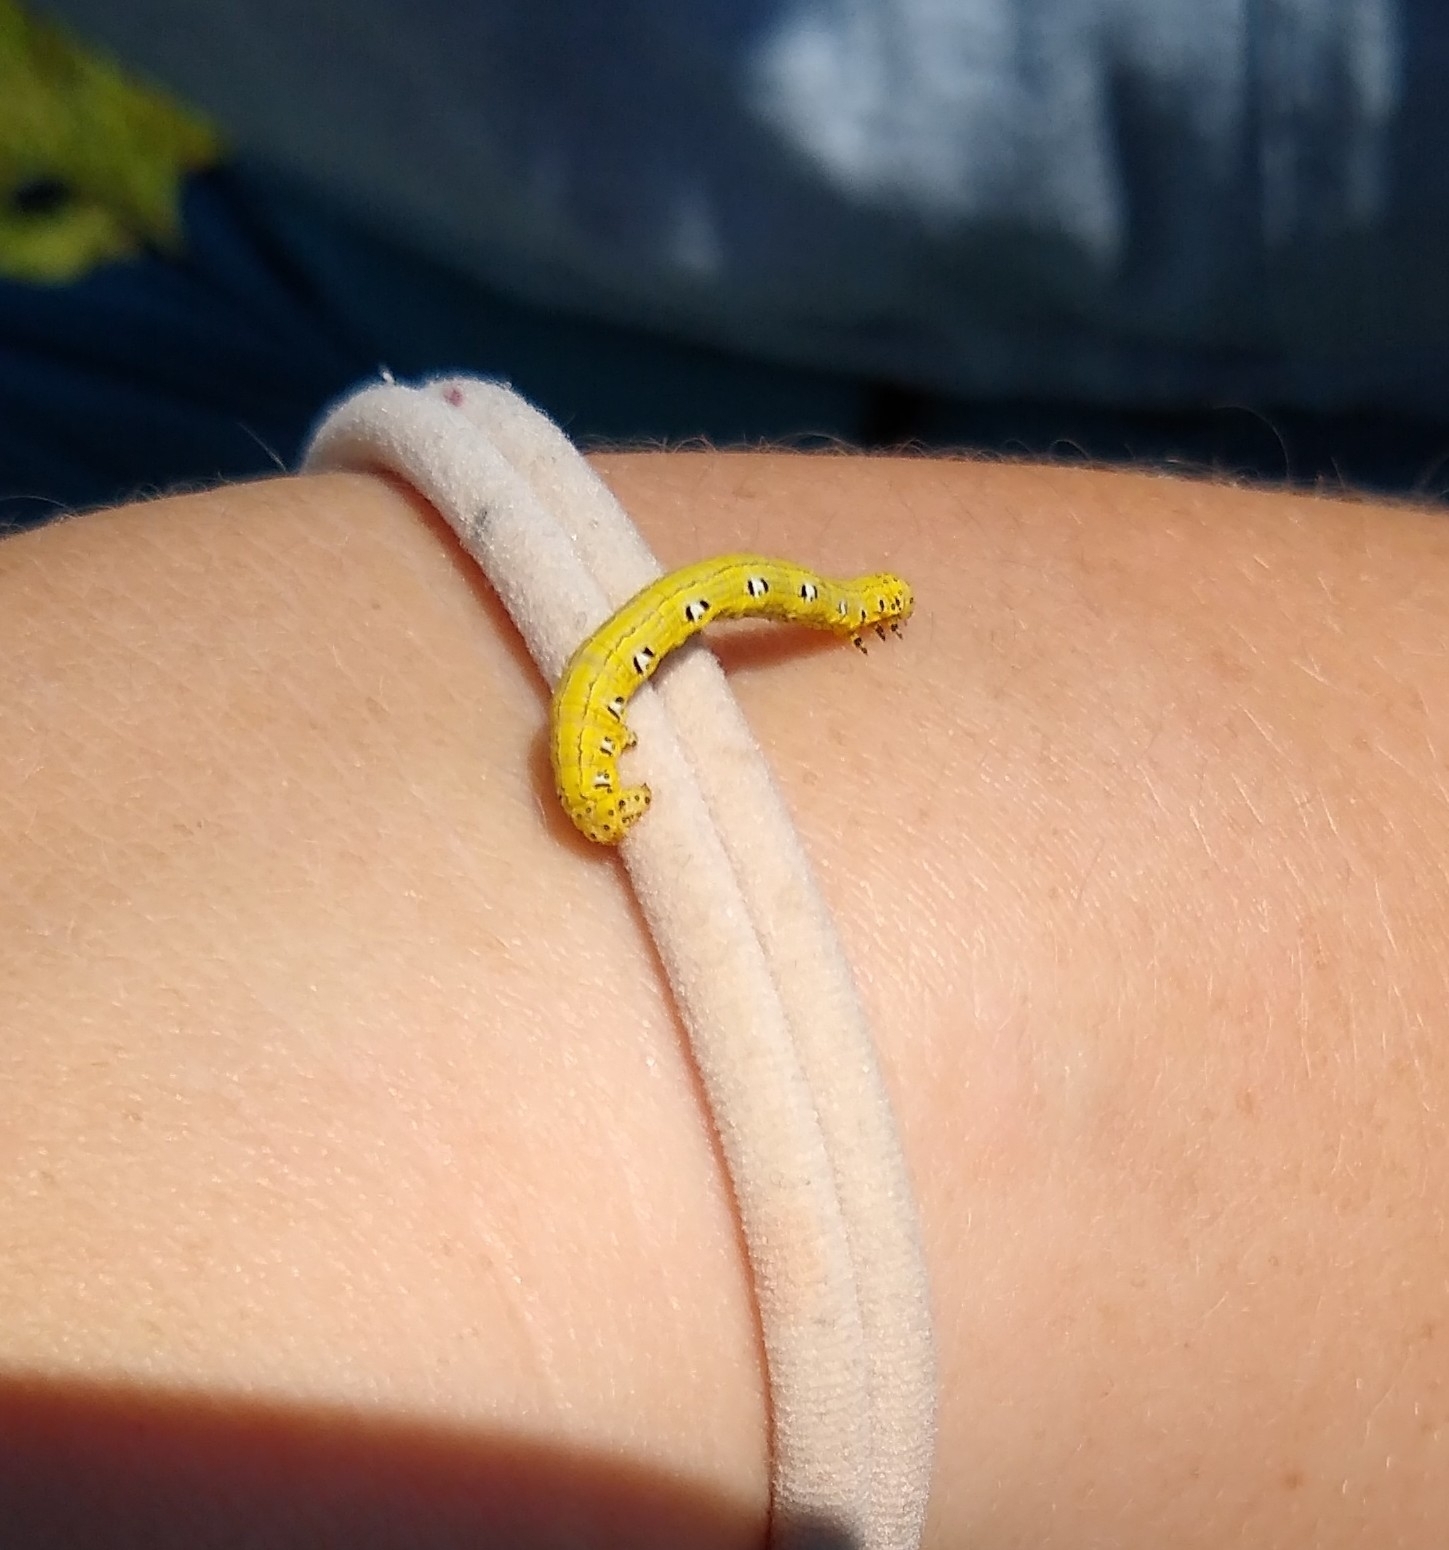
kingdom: Animalia
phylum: Arthropoda
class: Insecta
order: Lepidoptera
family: Geometridae
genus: Cingilia
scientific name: Cingilia catenaria
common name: Chain-dotted geometer
